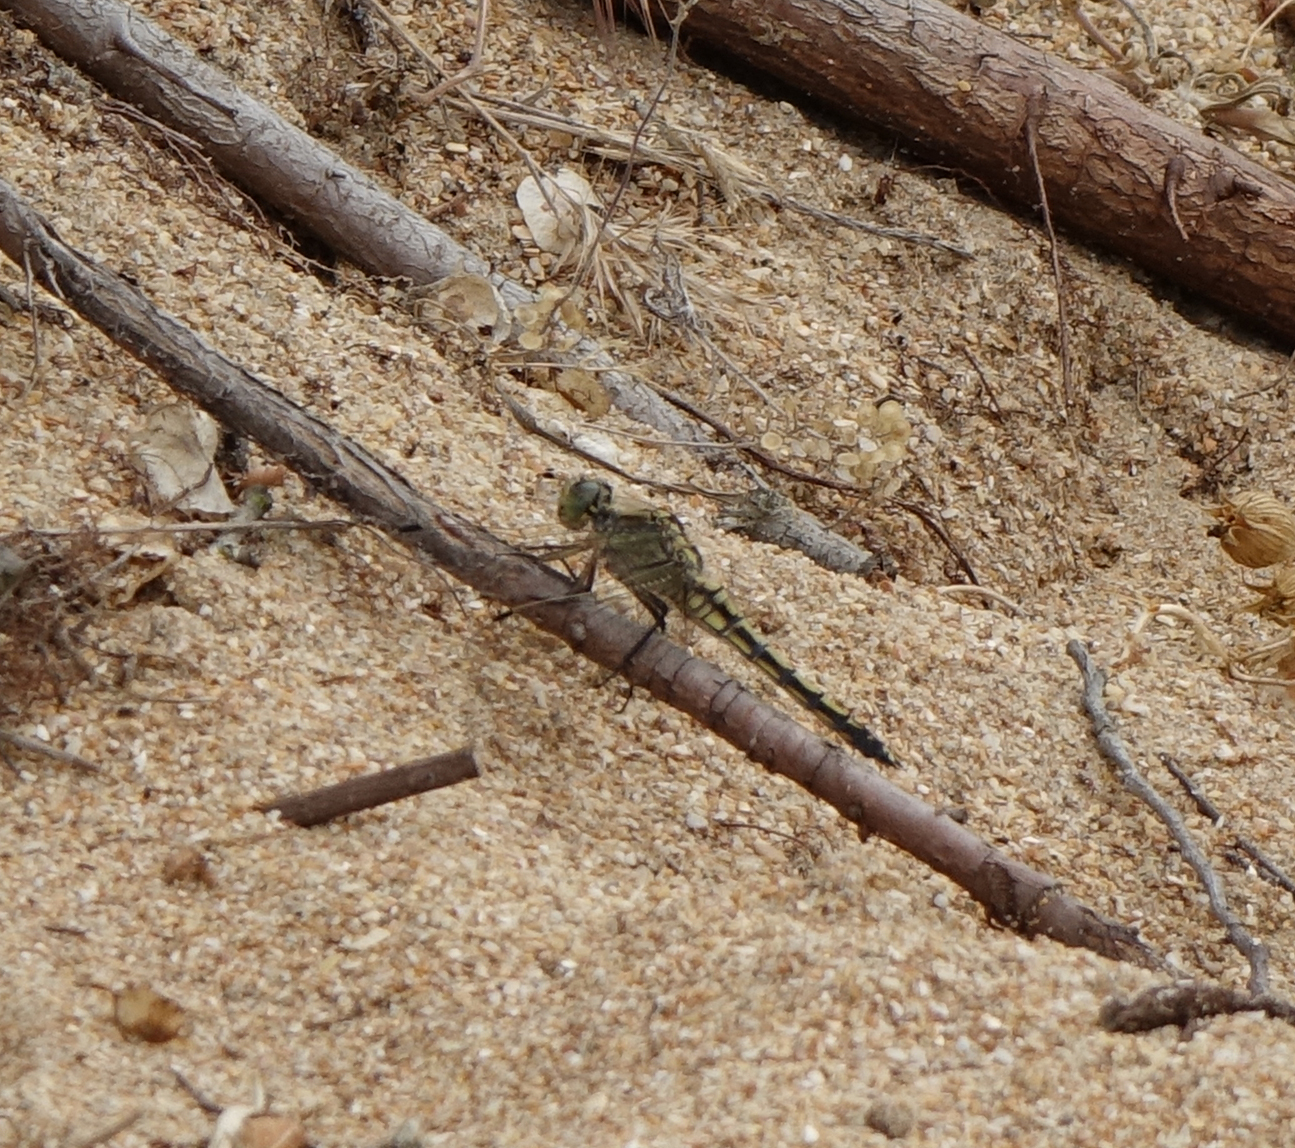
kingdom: Animalia
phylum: Arthropoda
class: Insecta
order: Odonata
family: Libellulidae
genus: Orthetrum
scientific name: Orthetrum cancellatum
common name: Black-tailed skimmer
